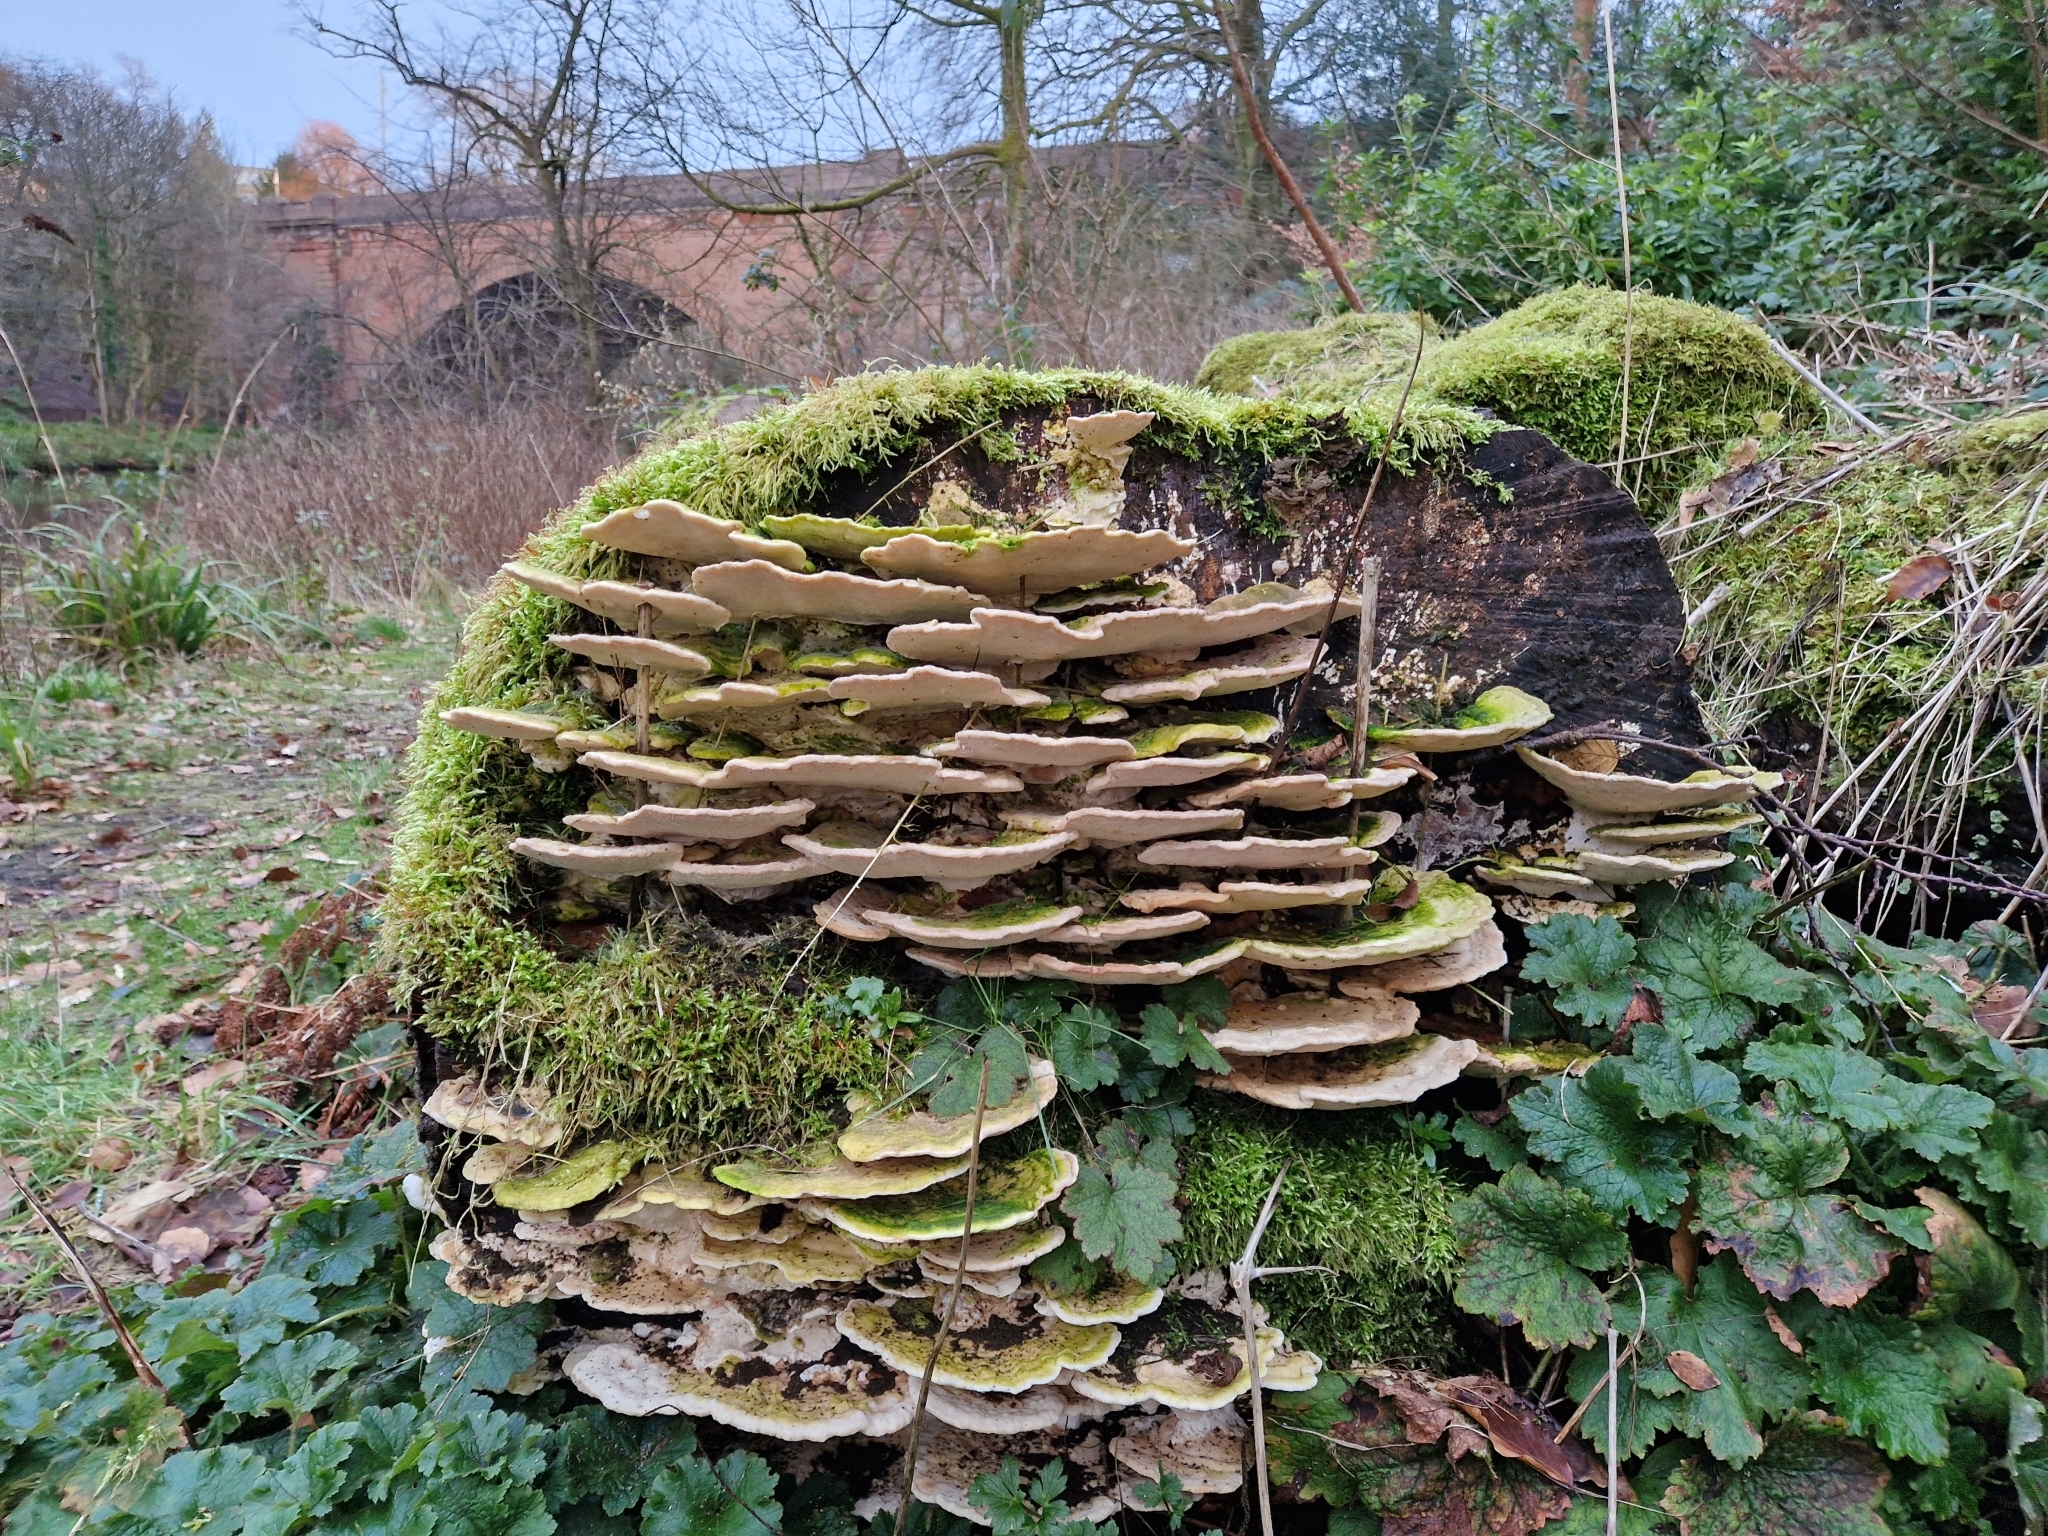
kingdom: Fungi
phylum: Basidiomycota
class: Agaricomycetes
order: Polyporales
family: Polyporaceae
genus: Trametes
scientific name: Trametes gibbosa
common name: Lumpy bracket
